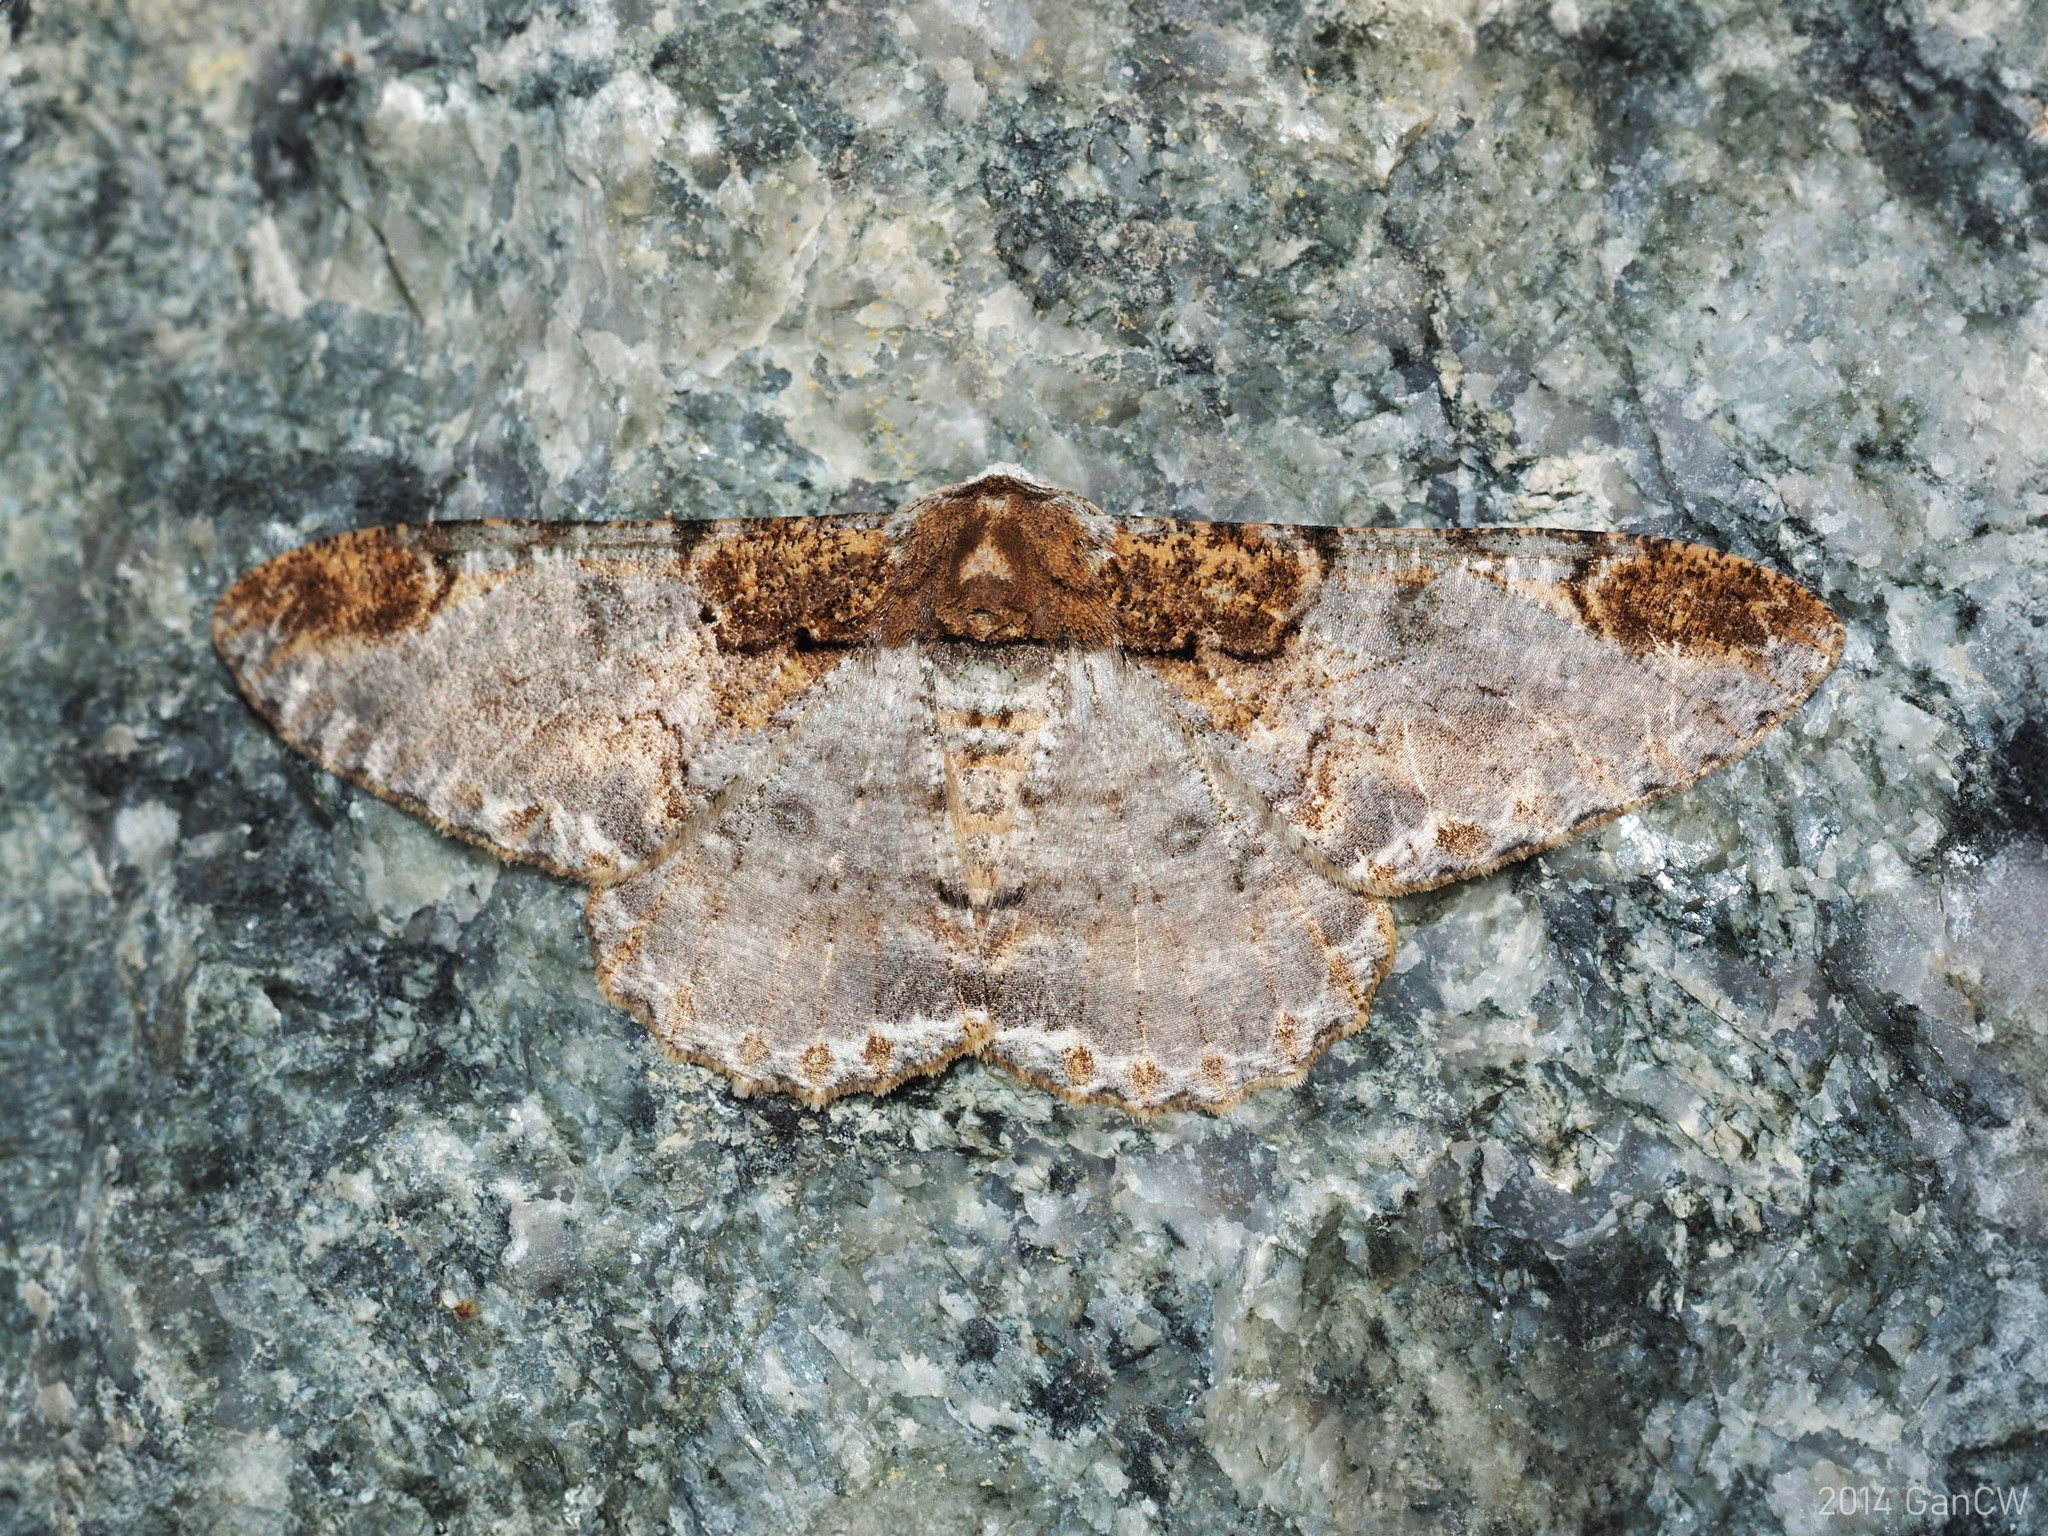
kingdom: Animalia
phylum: Arthropoda
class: Insecta
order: Lepidoptera
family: Geometridae
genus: Amraica
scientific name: Amraica solivagaria
